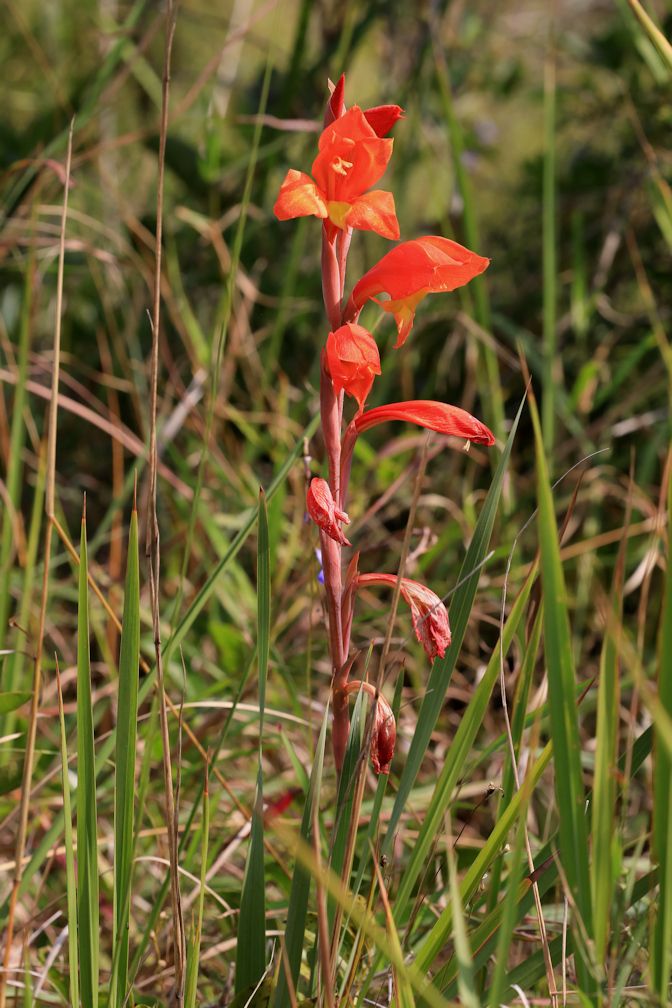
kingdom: Plantae
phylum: Tracheophyta
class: Liliopsida
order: Asparagales
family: Iridaceae
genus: Gladiolus
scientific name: Gladiolus dalenii
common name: Cornflag
